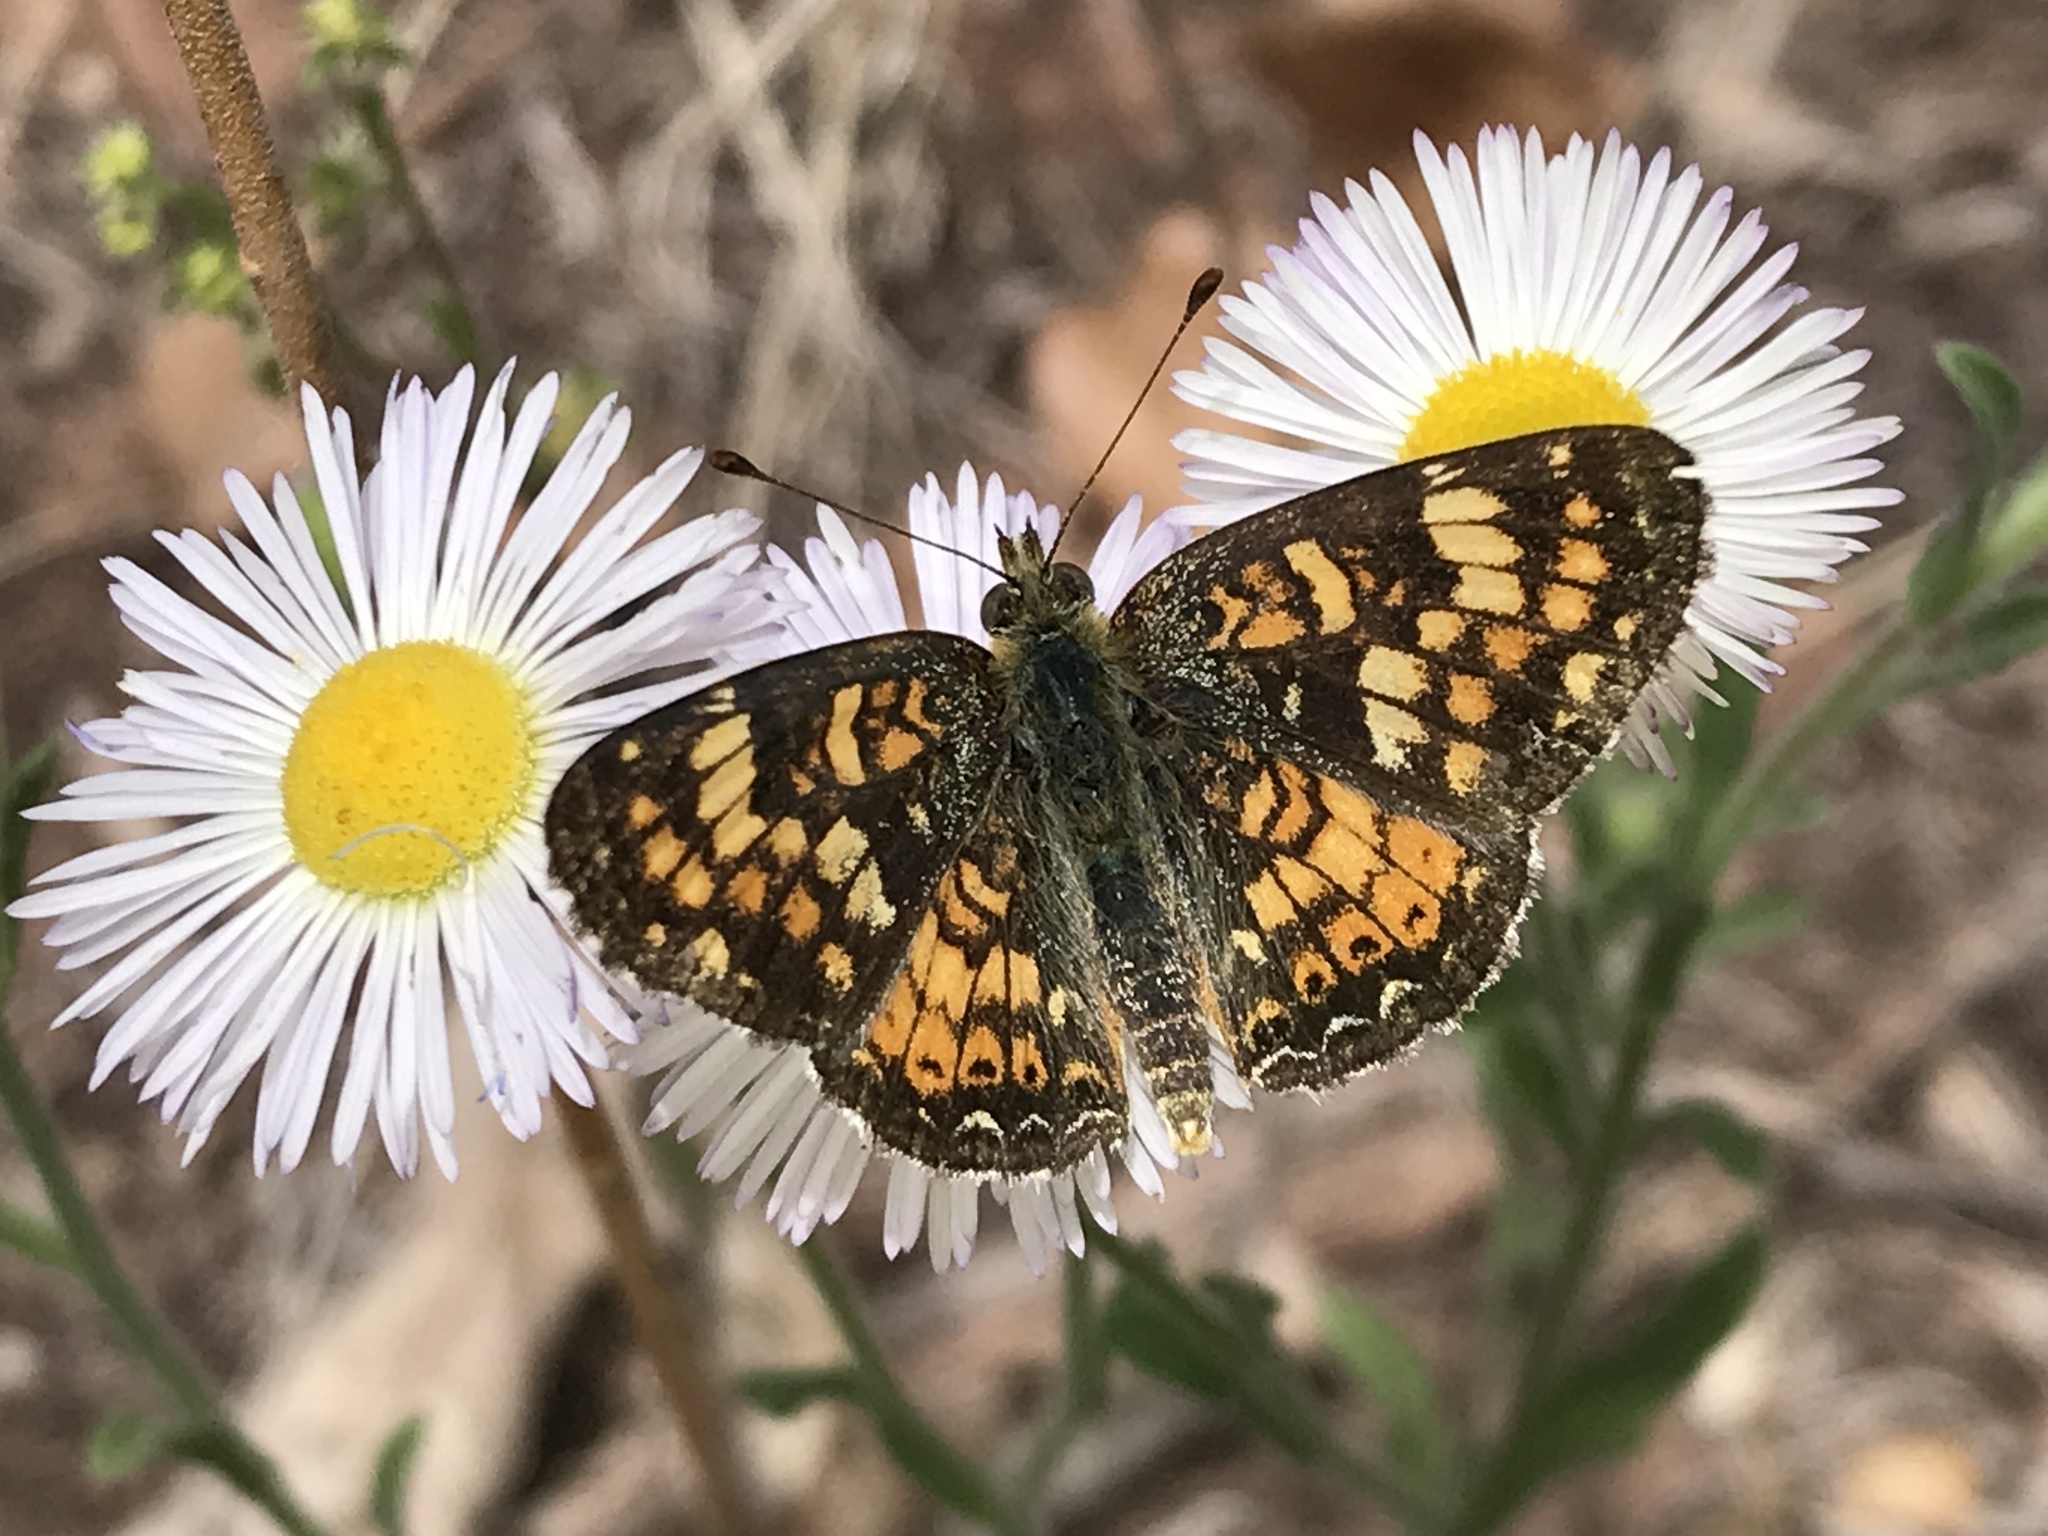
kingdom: Animalia
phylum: Arthropoda
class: Insecta
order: Lepidoptera
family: Nymphalidae
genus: Phyciodes
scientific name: Phyciodes tharos
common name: Pearl crescent
